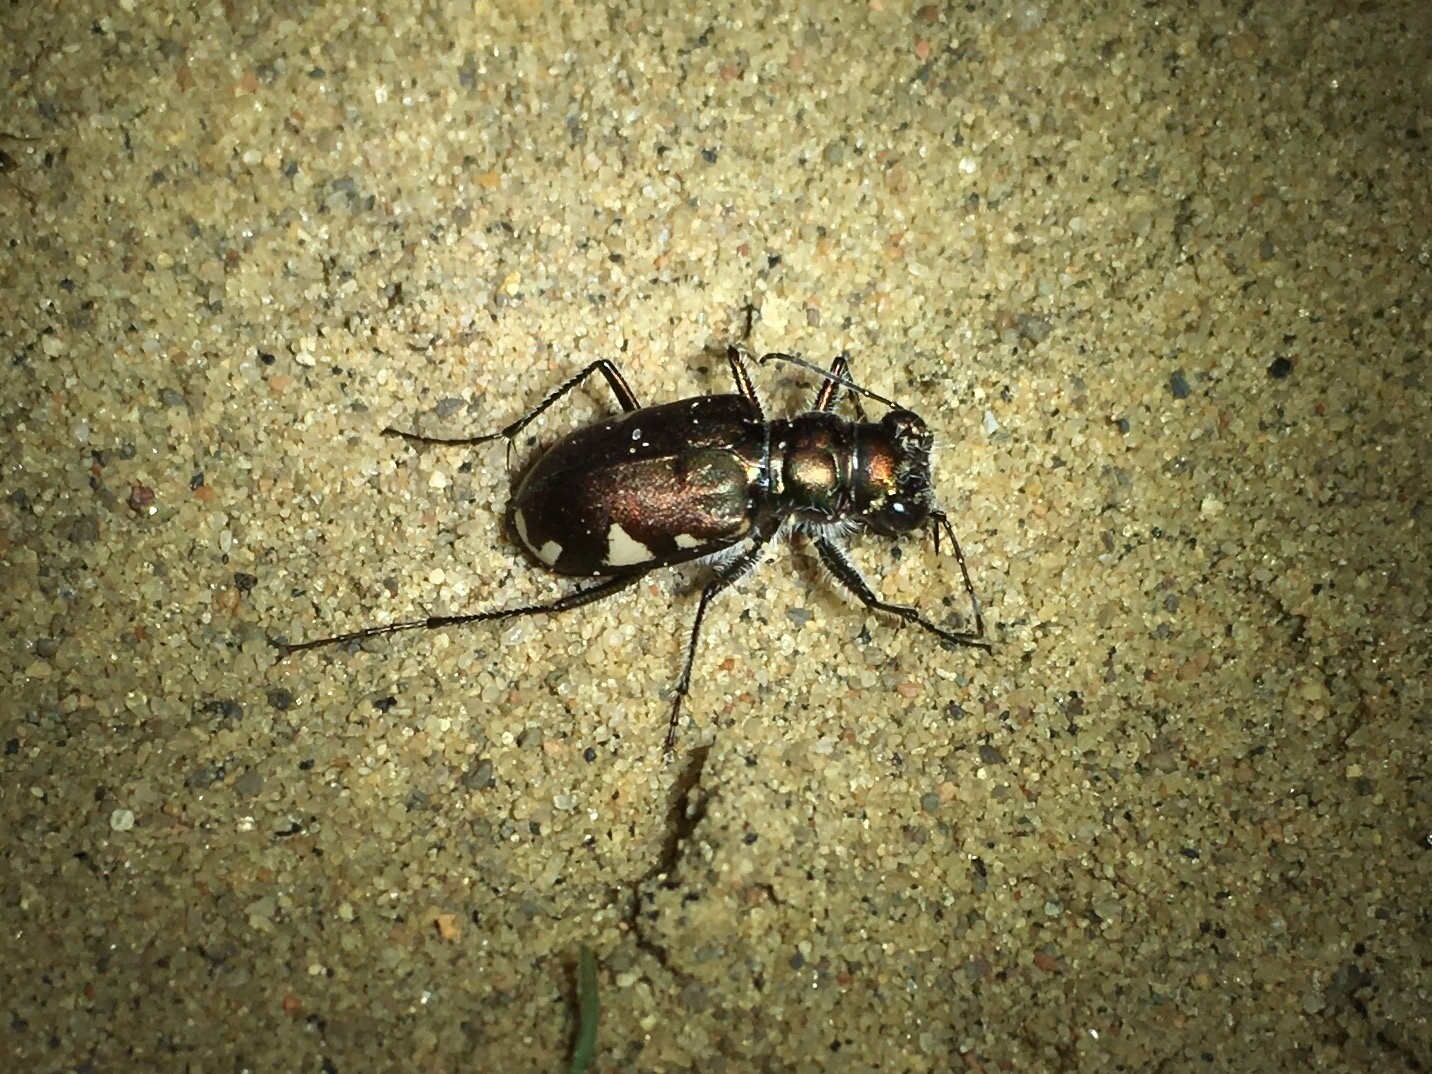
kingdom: Animalia
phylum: Arthropoda
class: Insecta
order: Coleoptera
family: Carabidae
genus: Cicindela
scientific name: Cicindela scutellaris
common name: Festive tiger beetle
